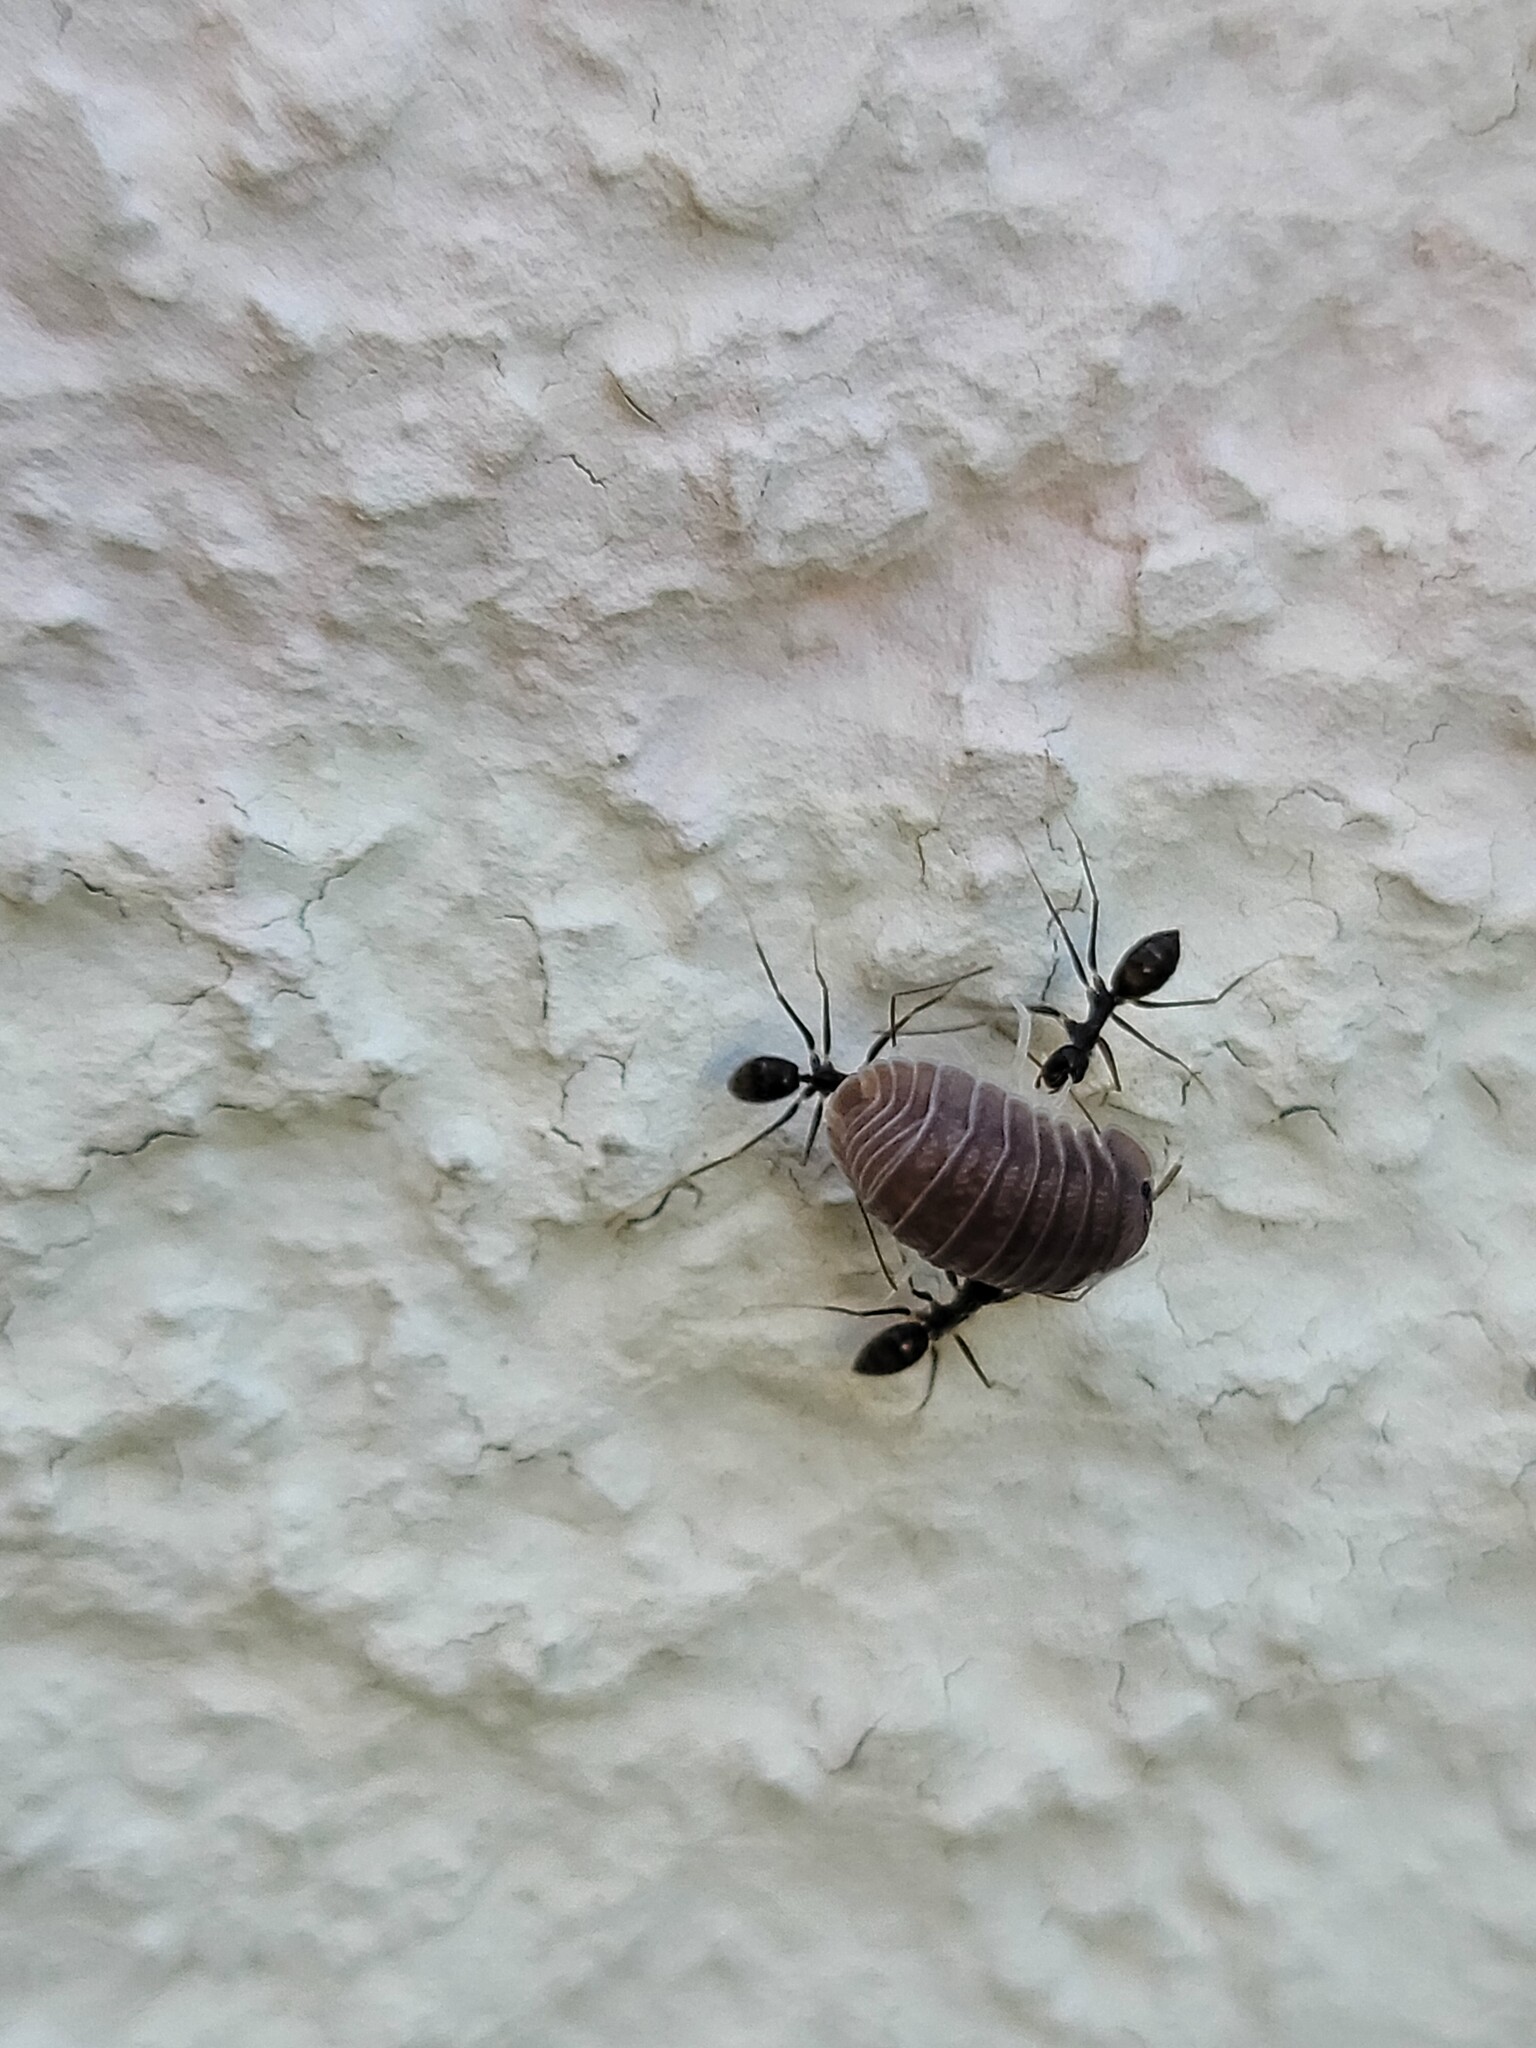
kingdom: Animalia
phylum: Arthropoda
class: Malacostraca
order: Isopoda
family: Armadillidae
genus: Cubaris
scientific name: Cubaris murina
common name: Pillbug
